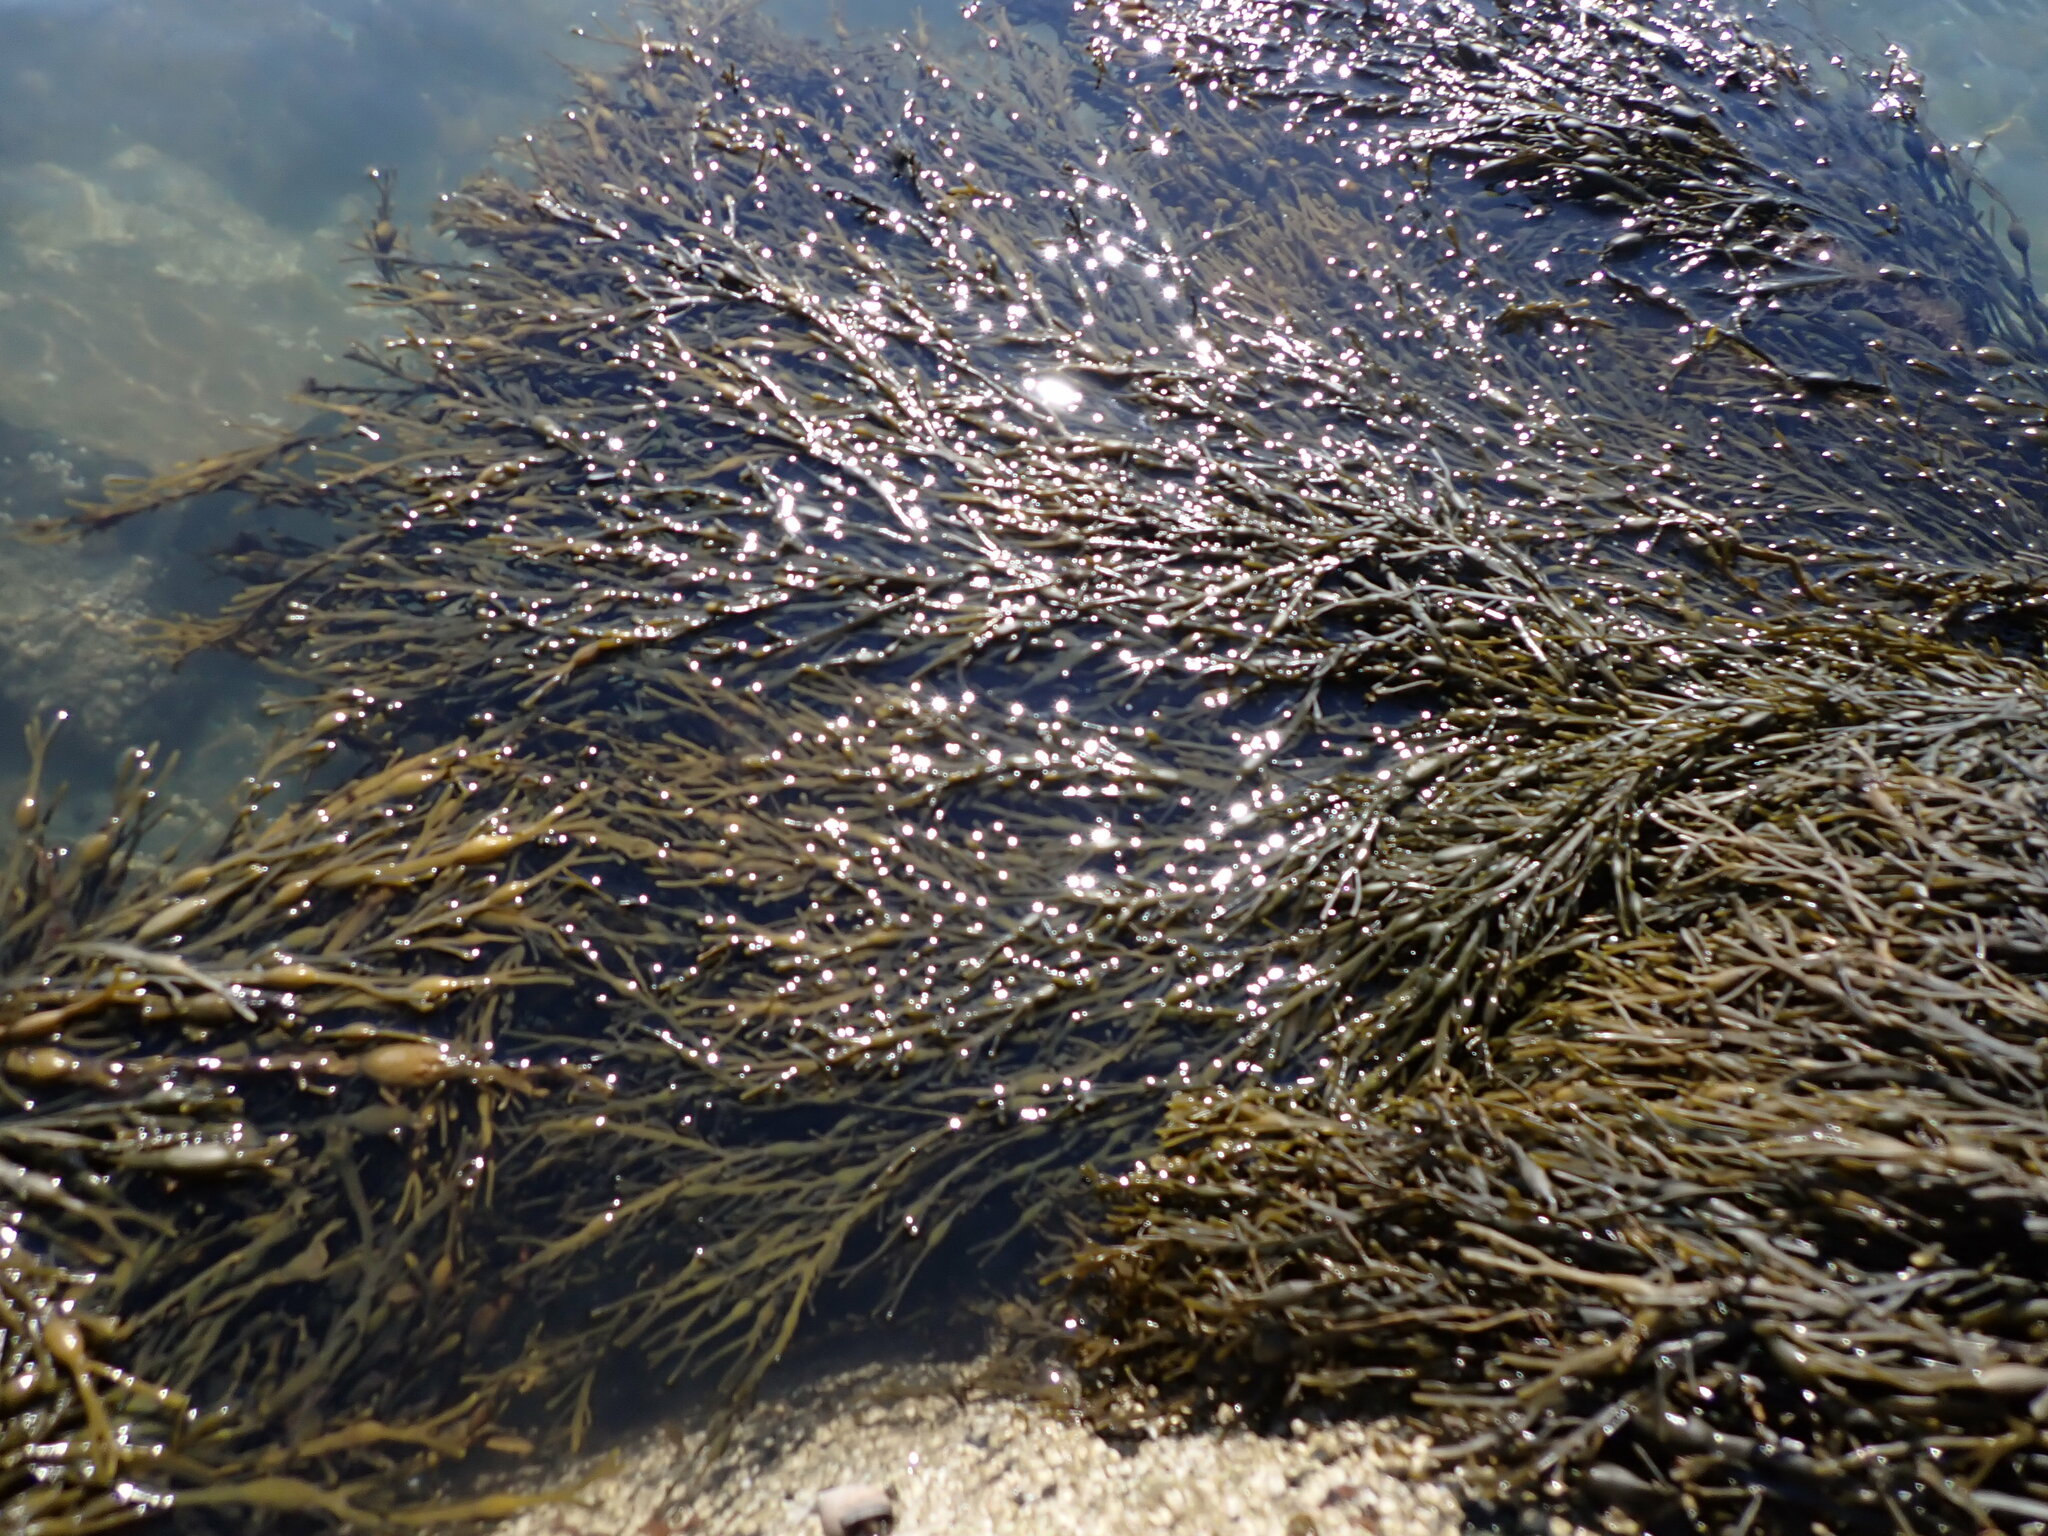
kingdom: Chromista
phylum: Ochrophyta
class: Phaeophyceae
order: Fucales
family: Fucaceae
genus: Ascophyllum
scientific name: Ascophyllum nodosum
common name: Knotted wrack
